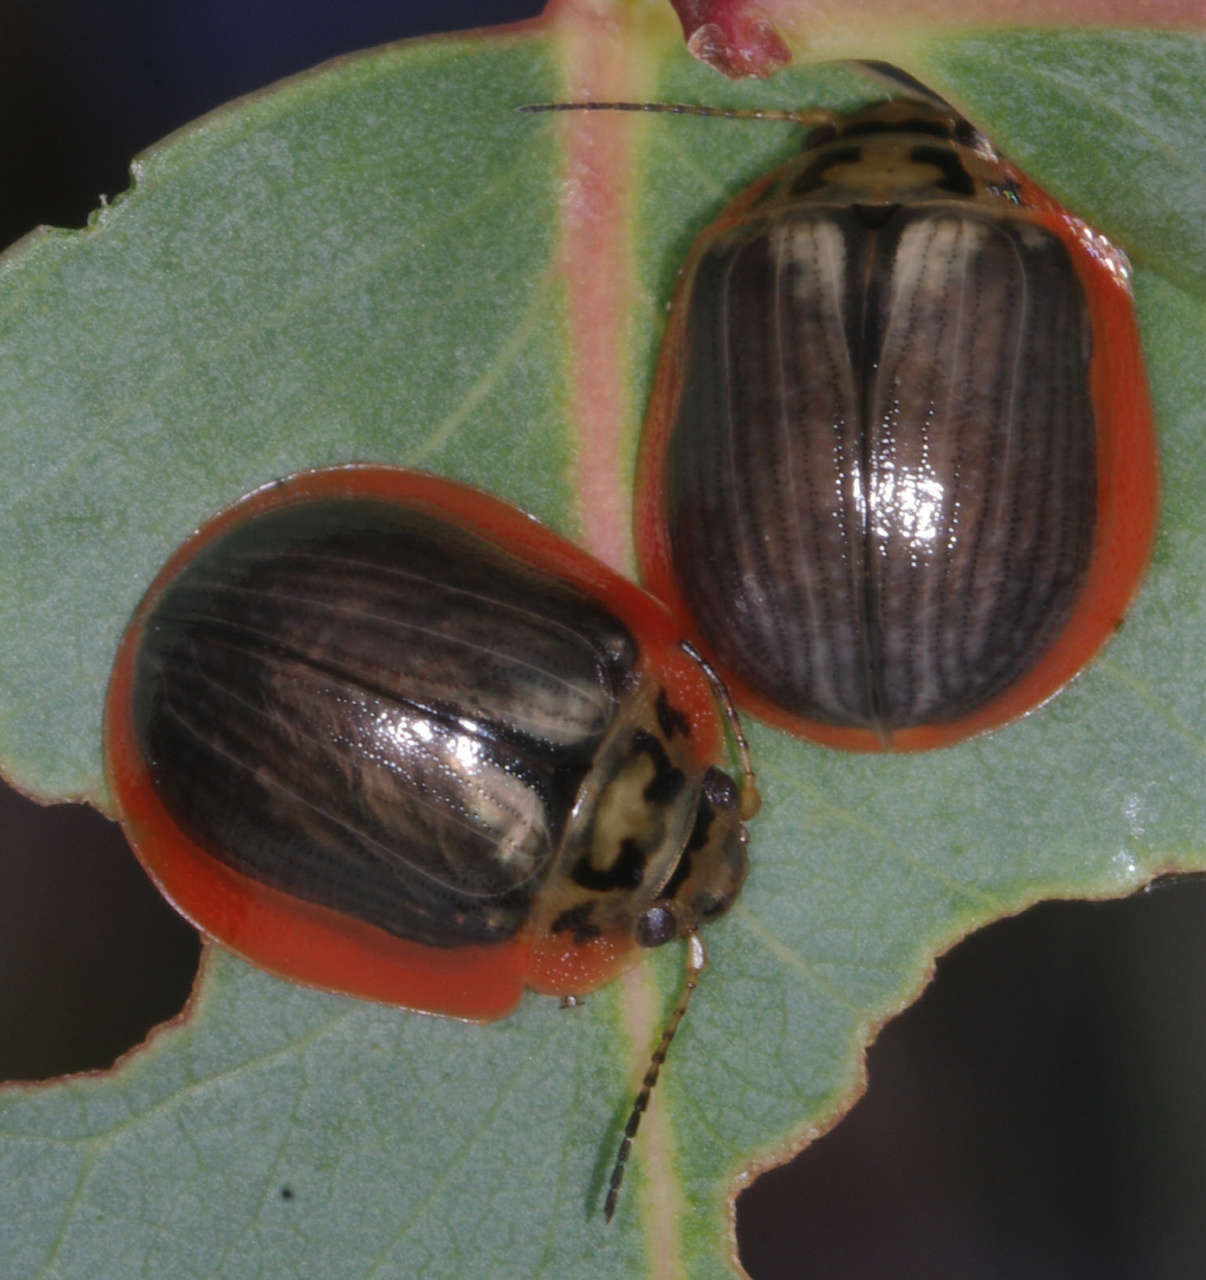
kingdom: Animalia
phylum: Arthropoda
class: Insecta
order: Coleoptera
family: Chrysomelidae
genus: Paropsisterna
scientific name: Paropsisterna agricola
